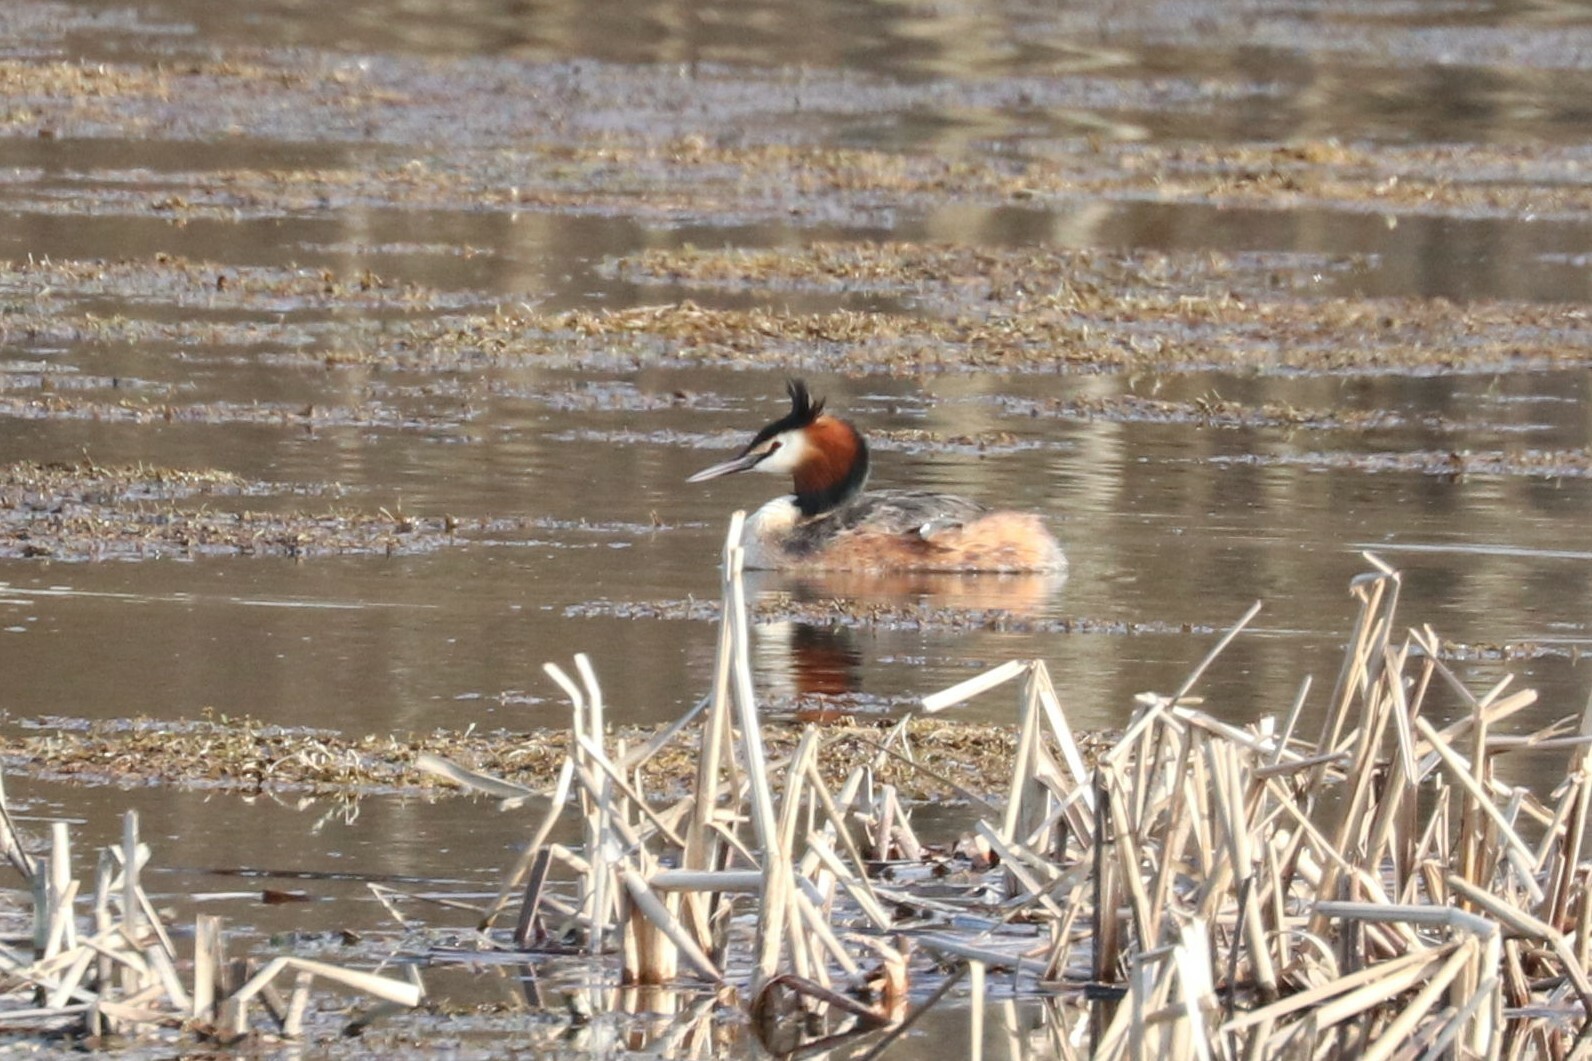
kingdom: Animalia
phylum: Chordata
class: Aves
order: Podicipediformes
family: Podicipedidae
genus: Podiceps
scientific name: Podiceps cristatus
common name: Great crested grebe
